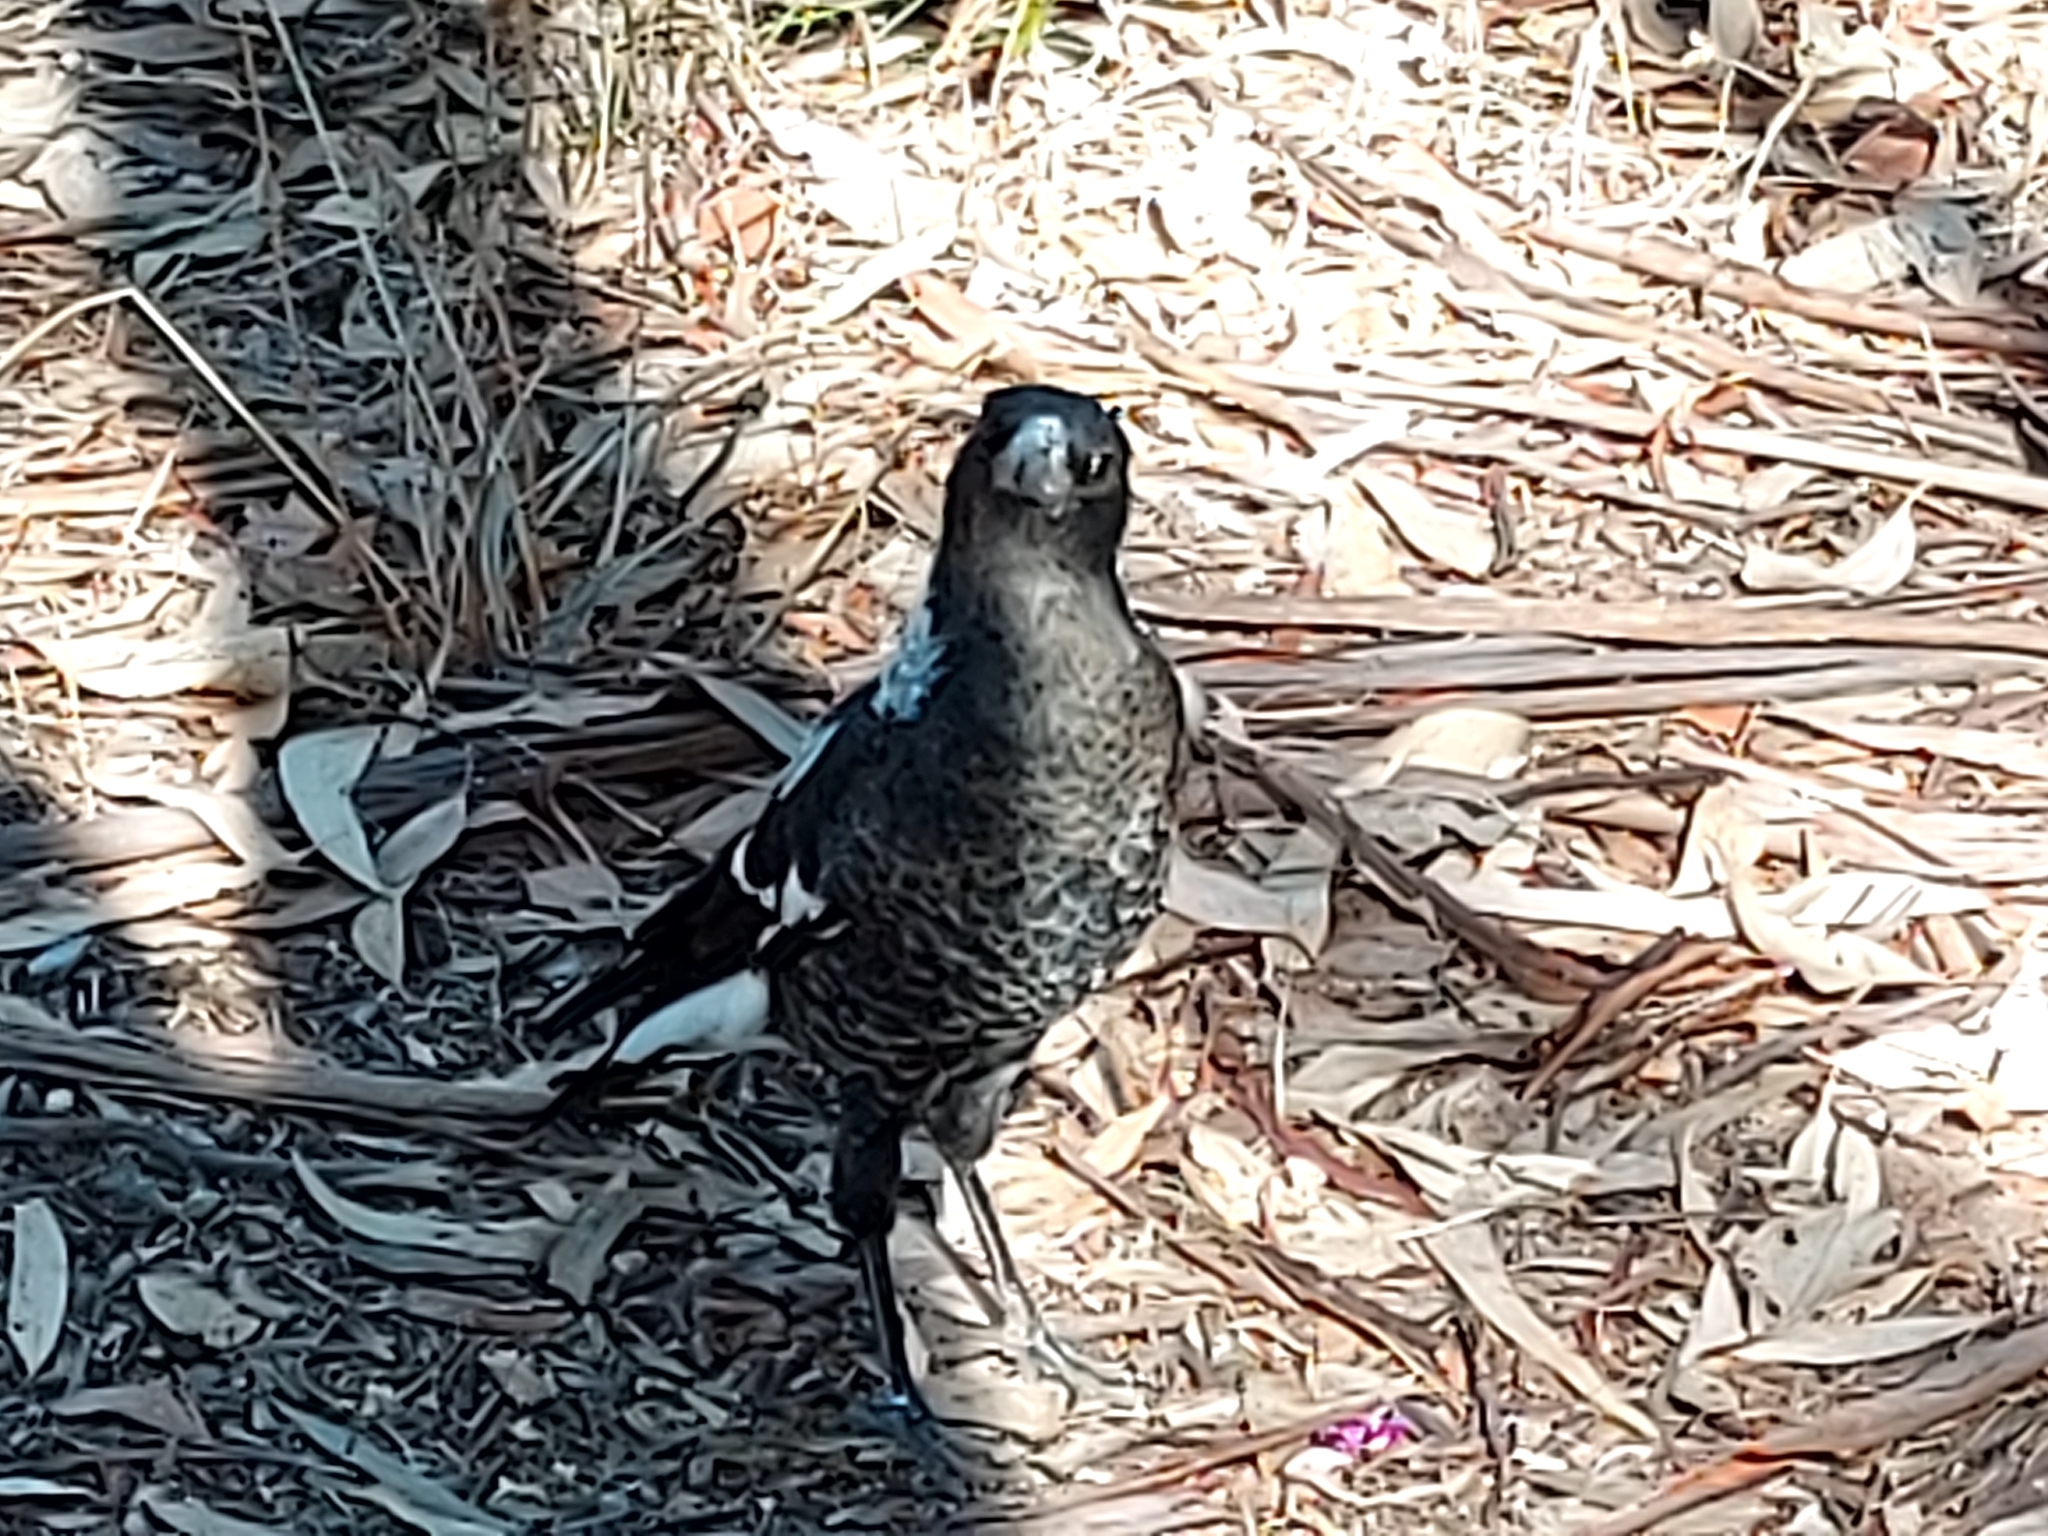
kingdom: Animalia
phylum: Chordata
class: Aves
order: Passeriformes
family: Cracticidae
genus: Gymnorhina
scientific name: Gymnorhina tibicen
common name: Australian magpie
